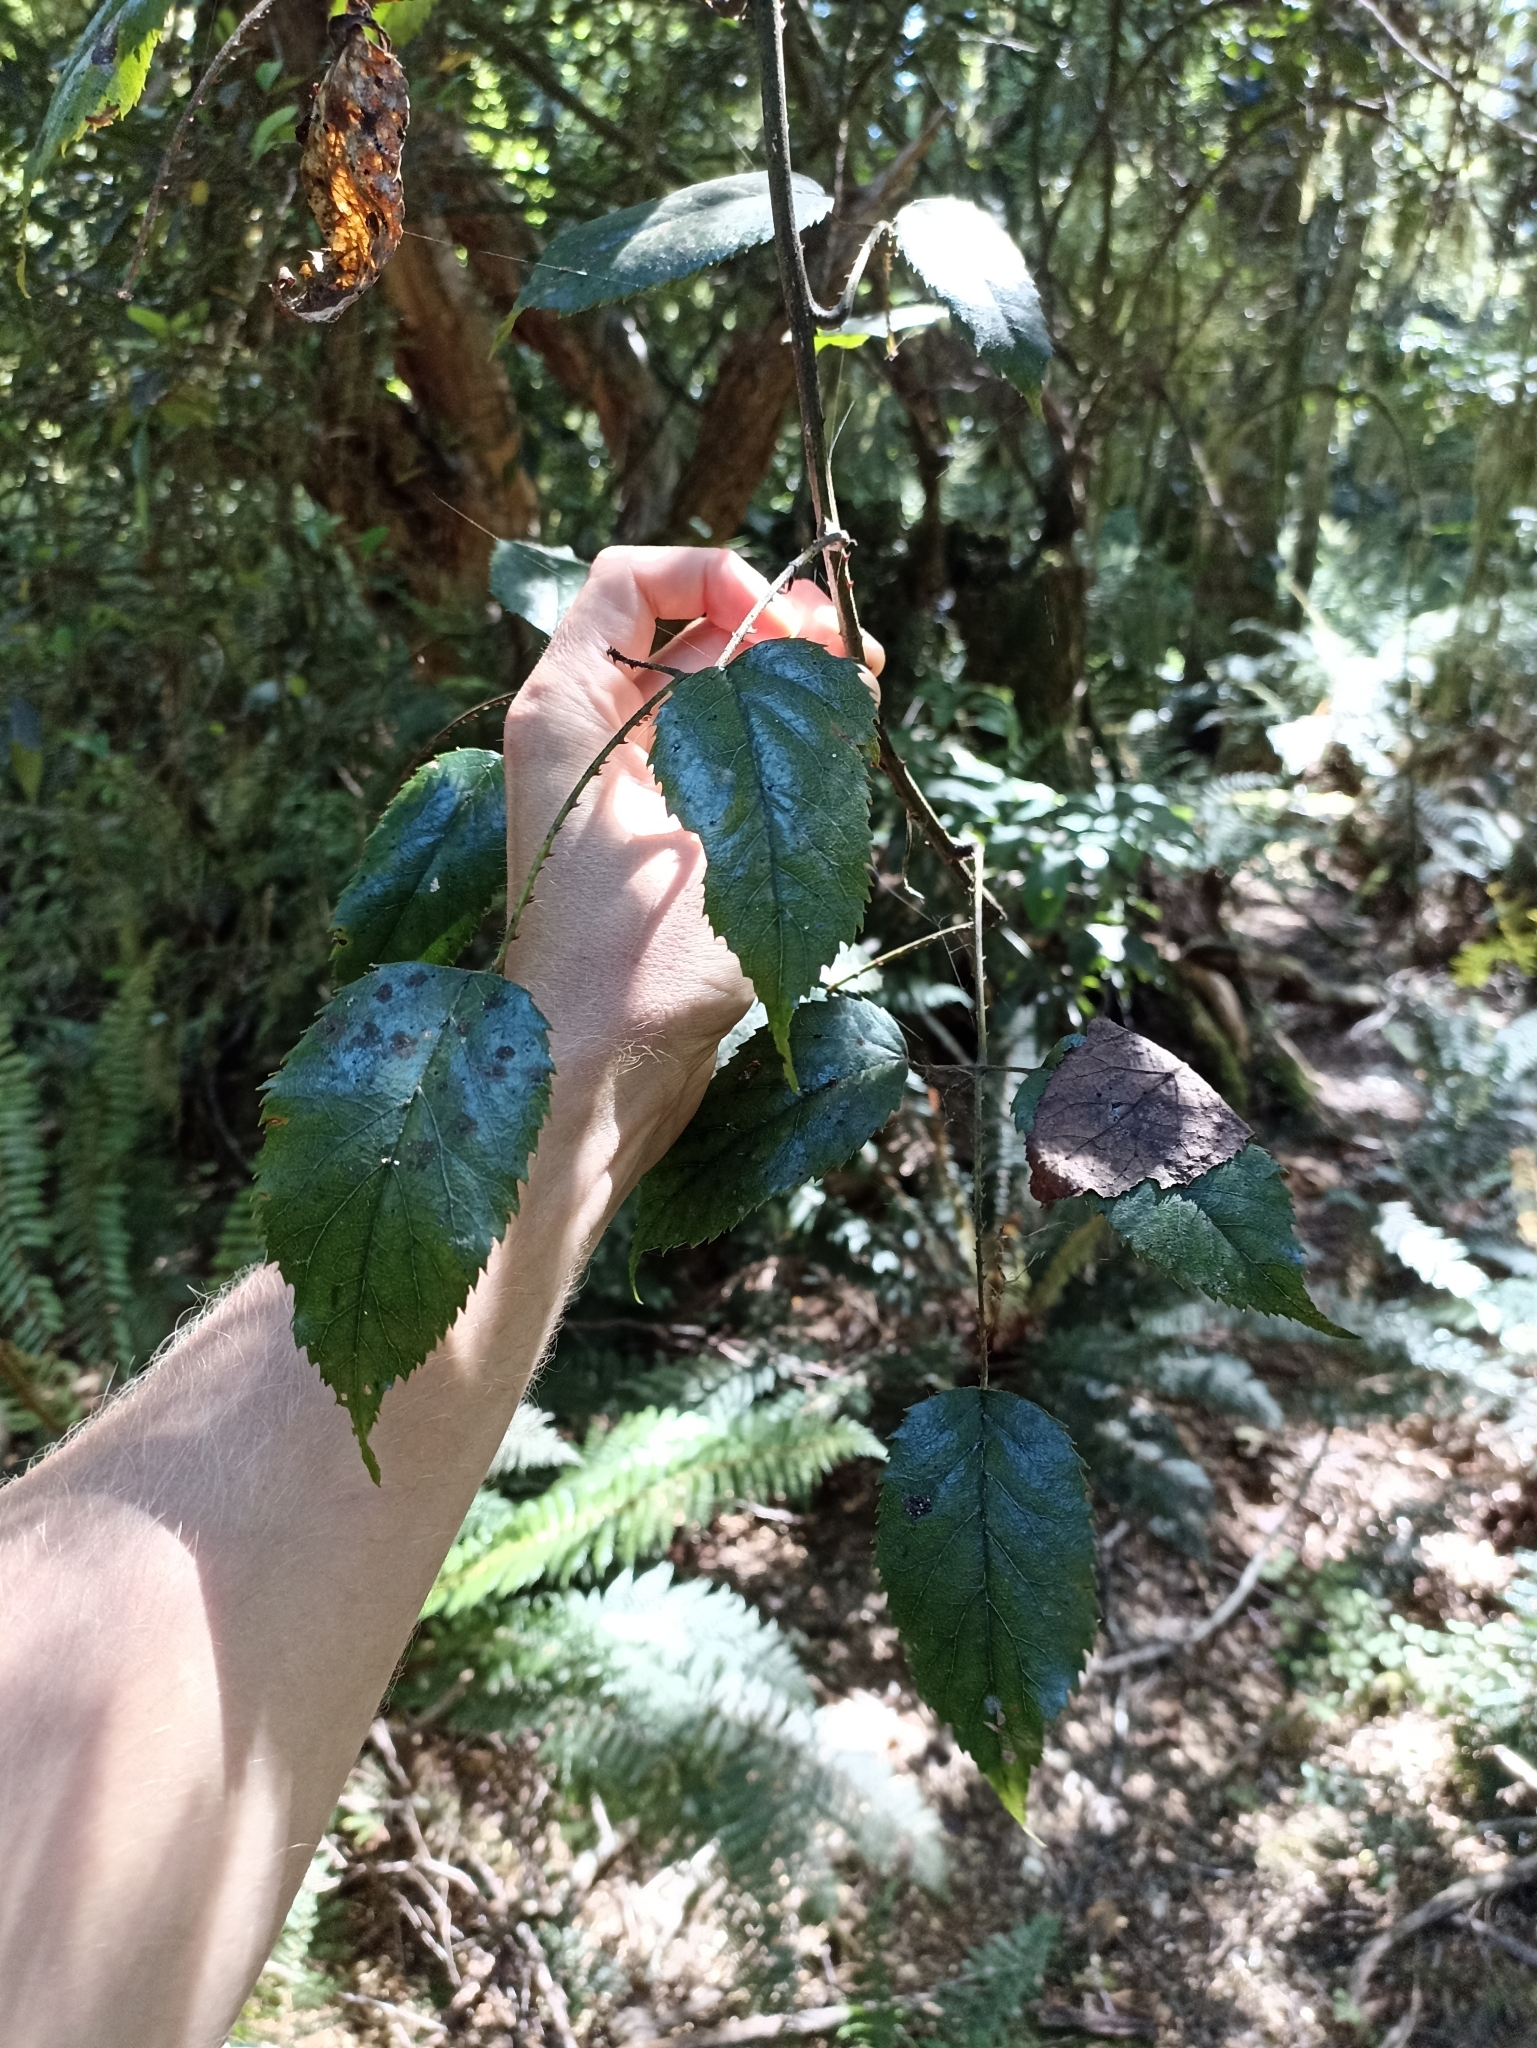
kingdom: Plantae
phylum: Tracheophyta
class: Magnoliopsida
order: Rosales
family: Rosaceae
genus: Rubus
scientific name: Rubus cissoides
